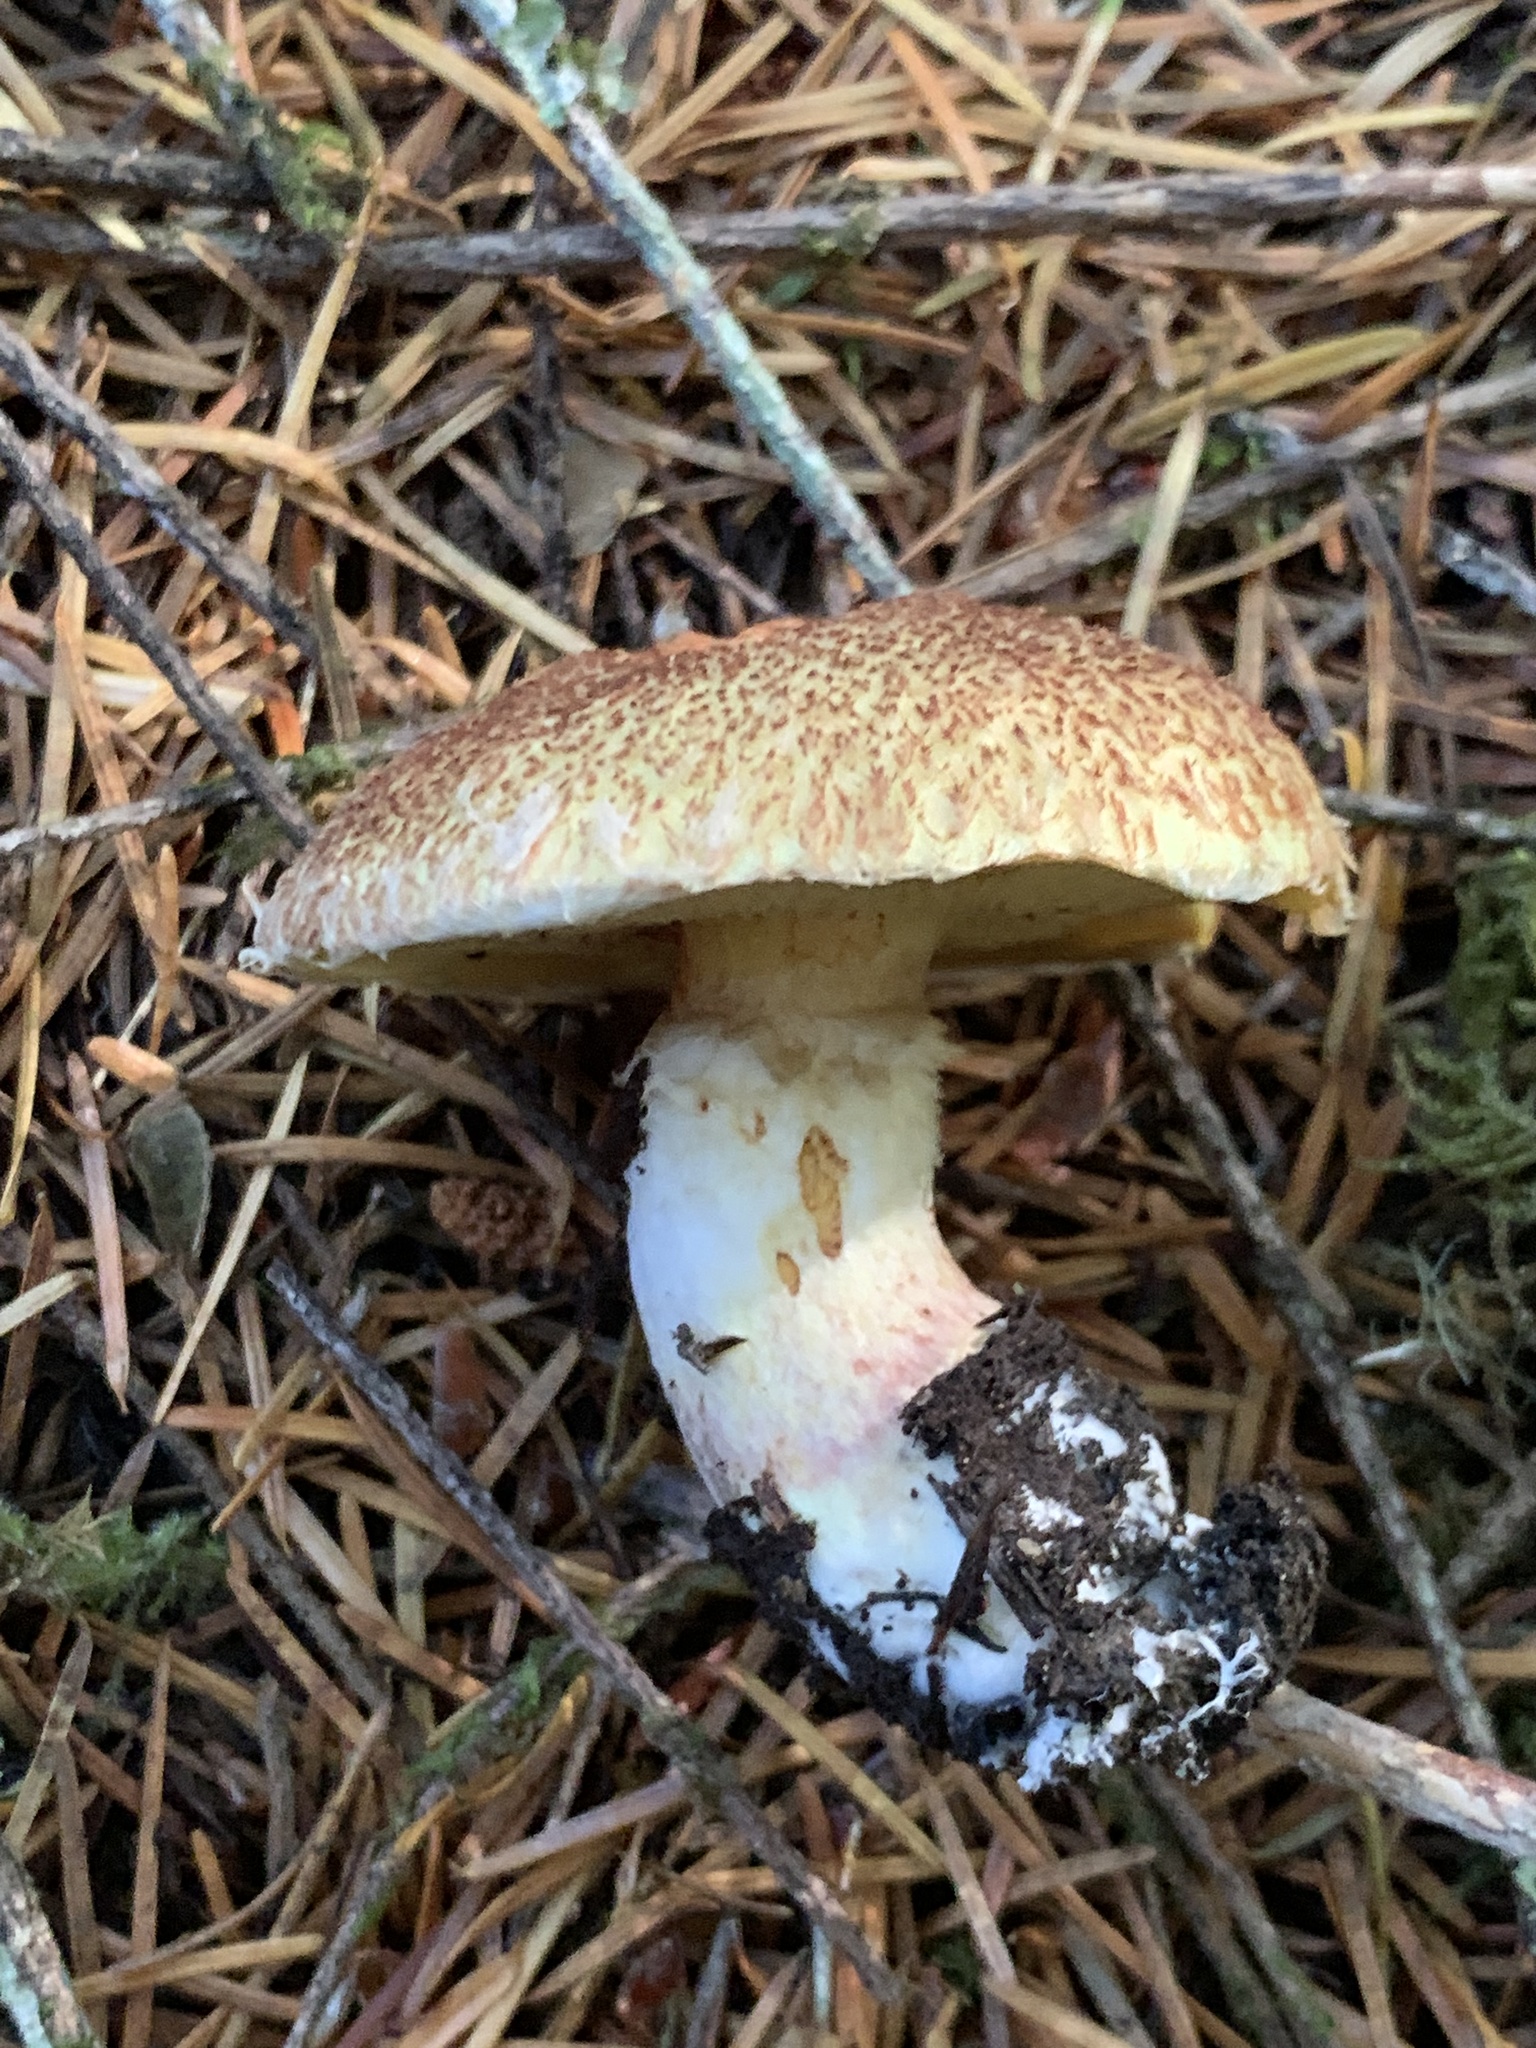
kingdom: Fungi
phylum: Basidiomycota
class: Agaricomycetes
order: Boletales
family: Suillaceae
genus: Suillus
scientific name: Suillus lakei
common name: Western painted suillus
